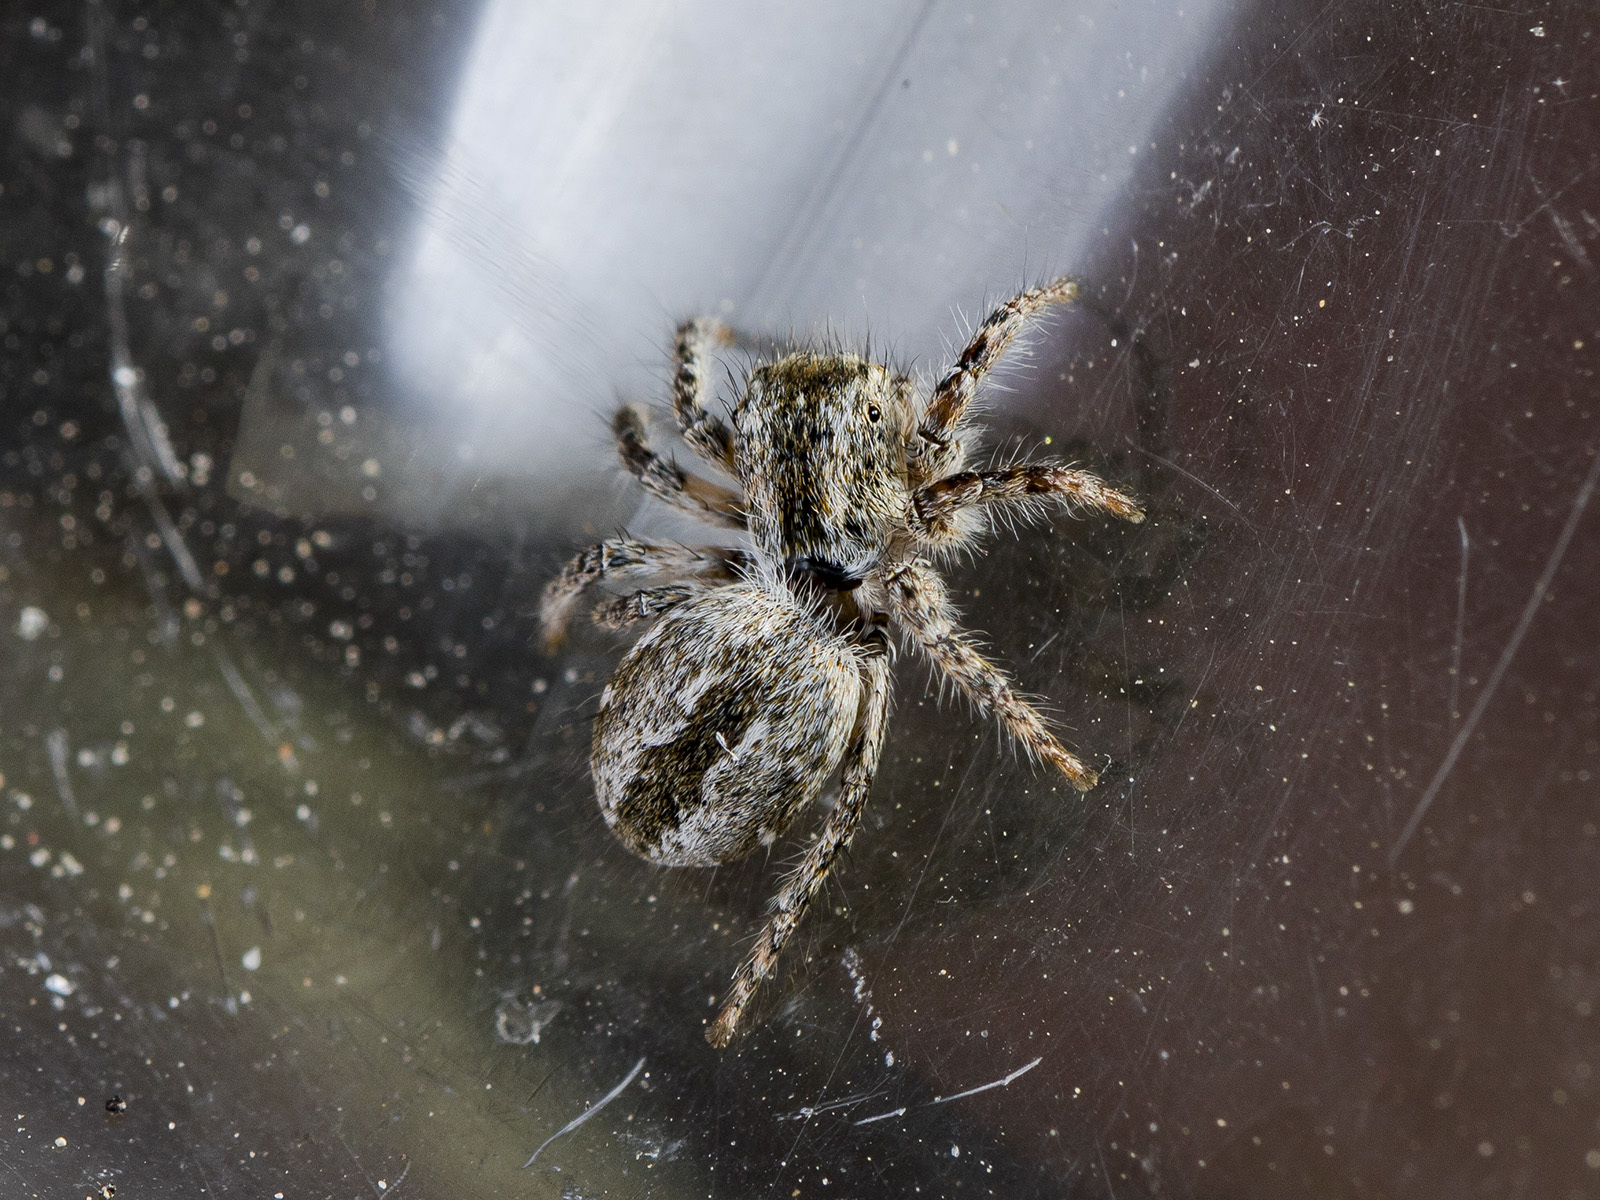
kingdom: Animalia
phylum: Arthropoda
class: Arachnida
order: Araneae
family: Salticidae
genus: Mogrus
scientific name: Mogrus larisae
